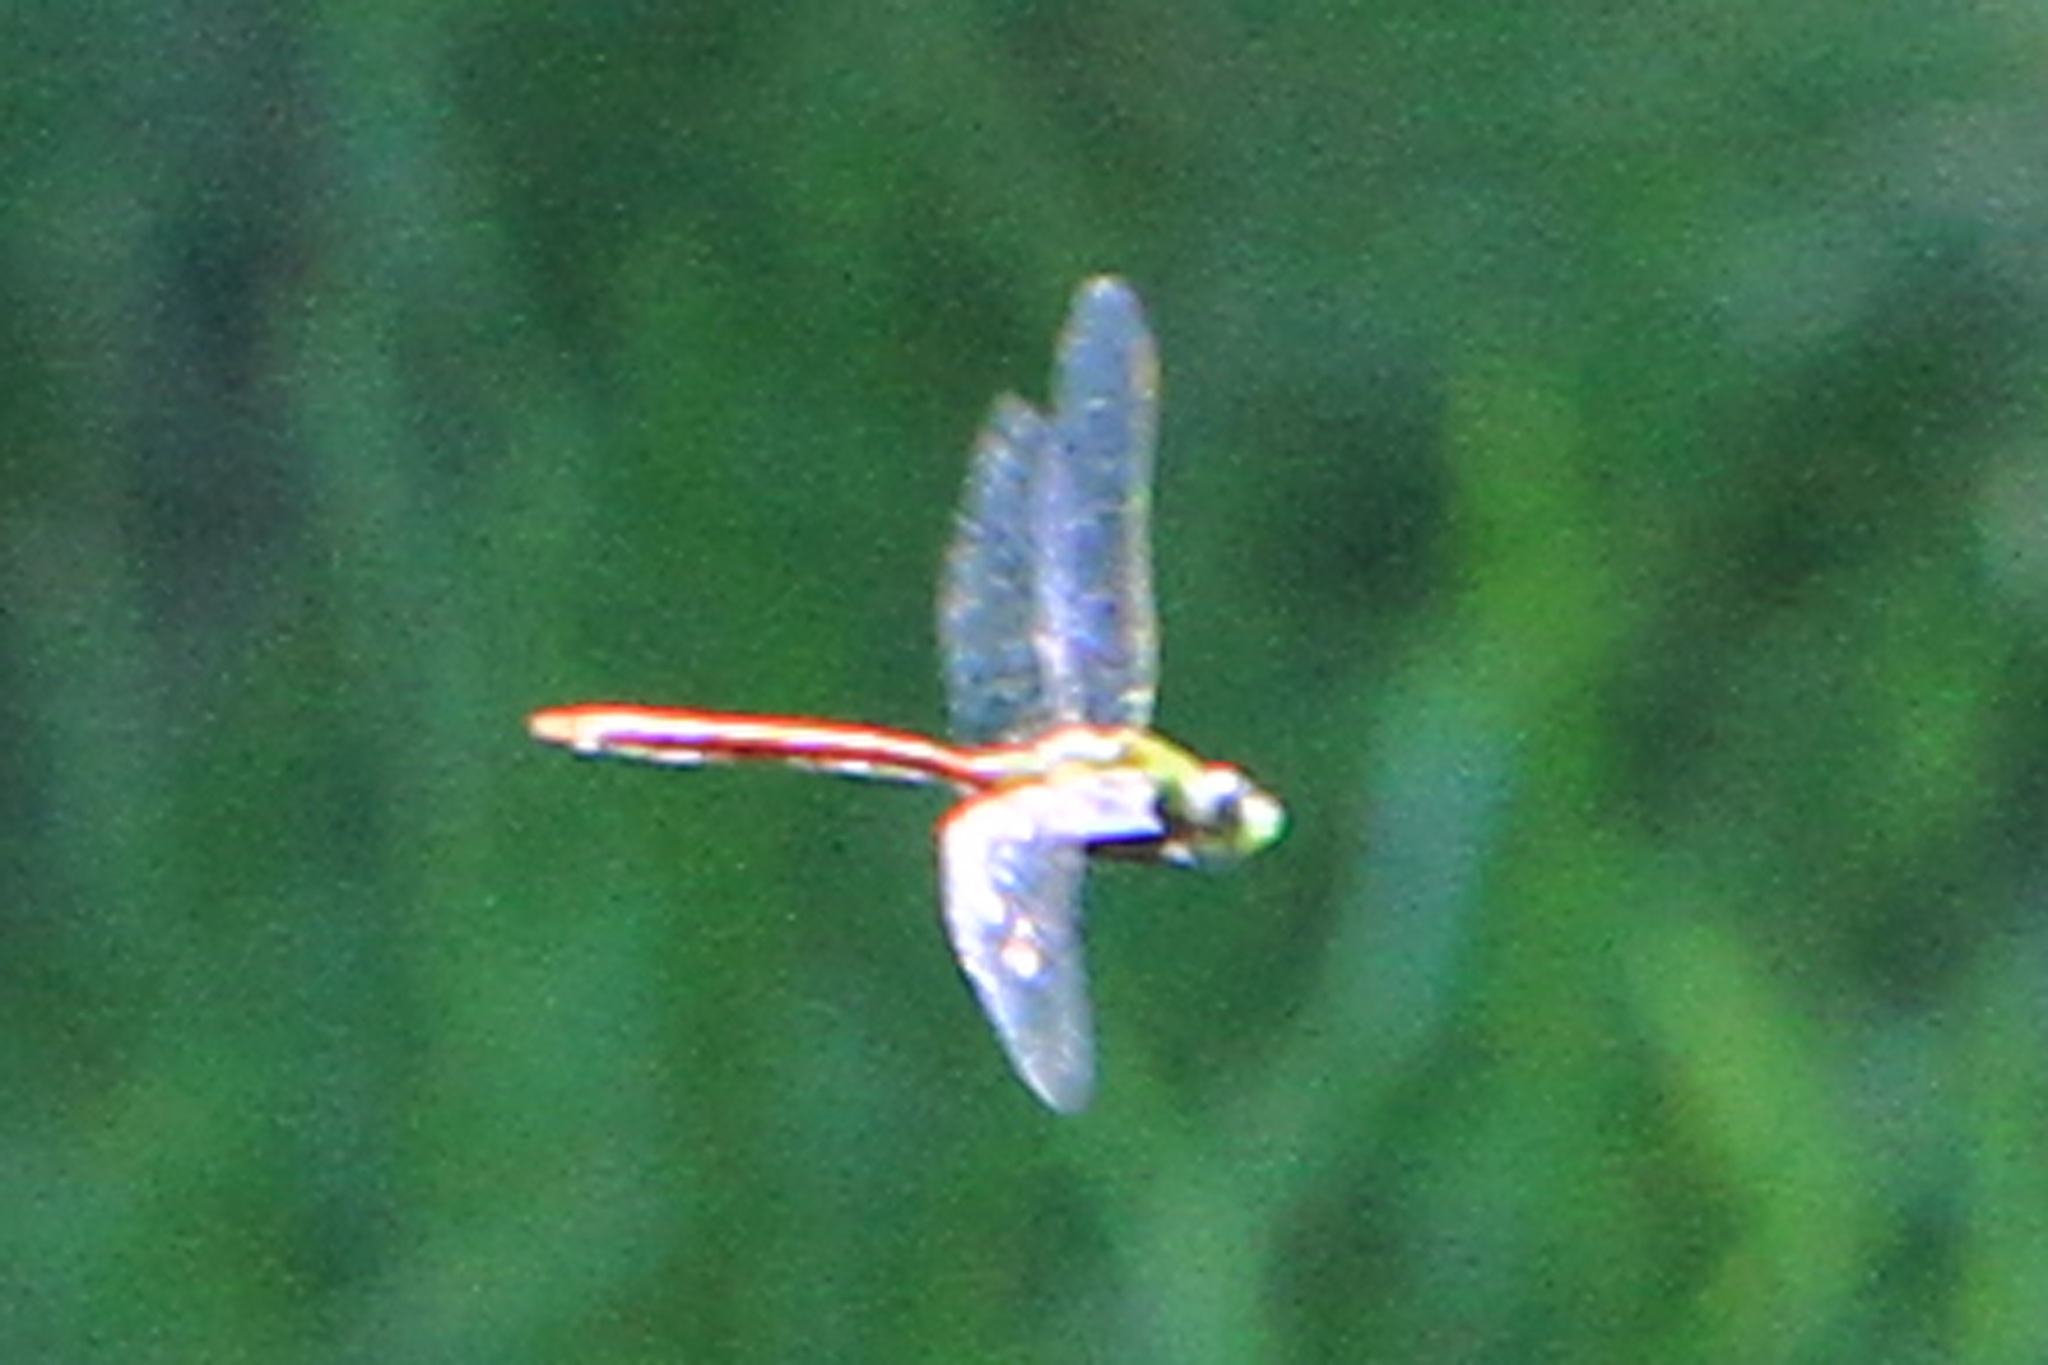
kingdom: Animalia
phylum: Arthropoda
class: Insecta
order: Odonata
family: Aeshnidae
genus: Anax
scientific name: Anax longipes
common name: Comet darner
